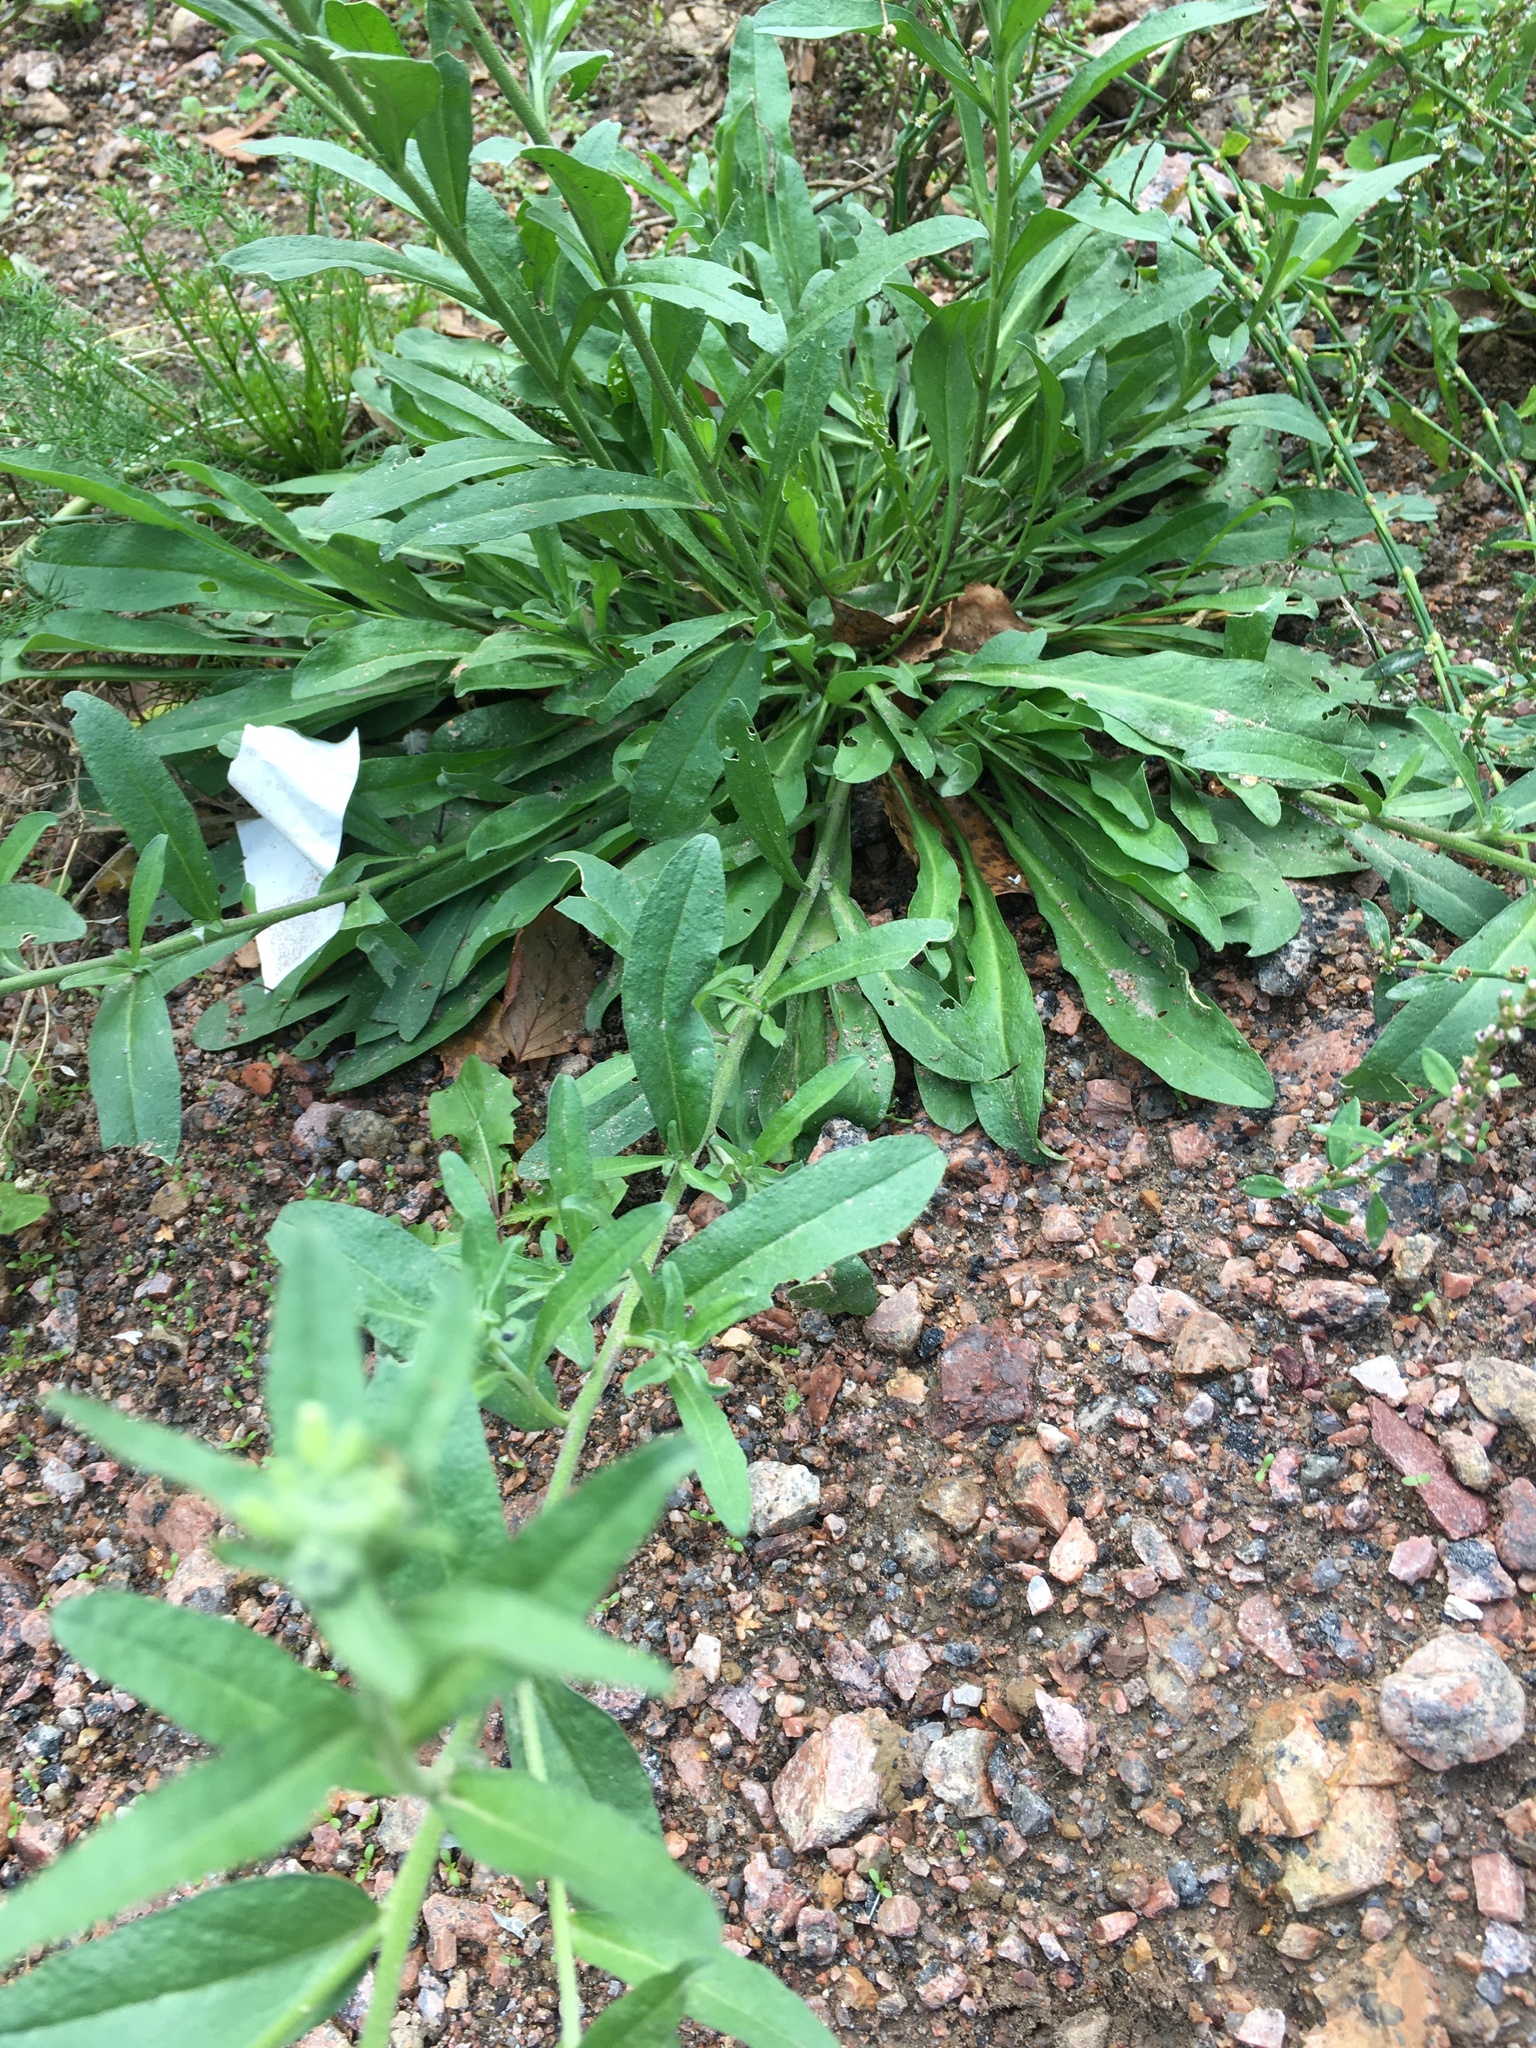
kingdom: Plantae
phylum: Tracheophyta
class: Magnoliopsida
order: Brassicales
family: Brassicaceae
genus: Berteroa
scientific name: Berteroa incana
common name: Hoary alison
